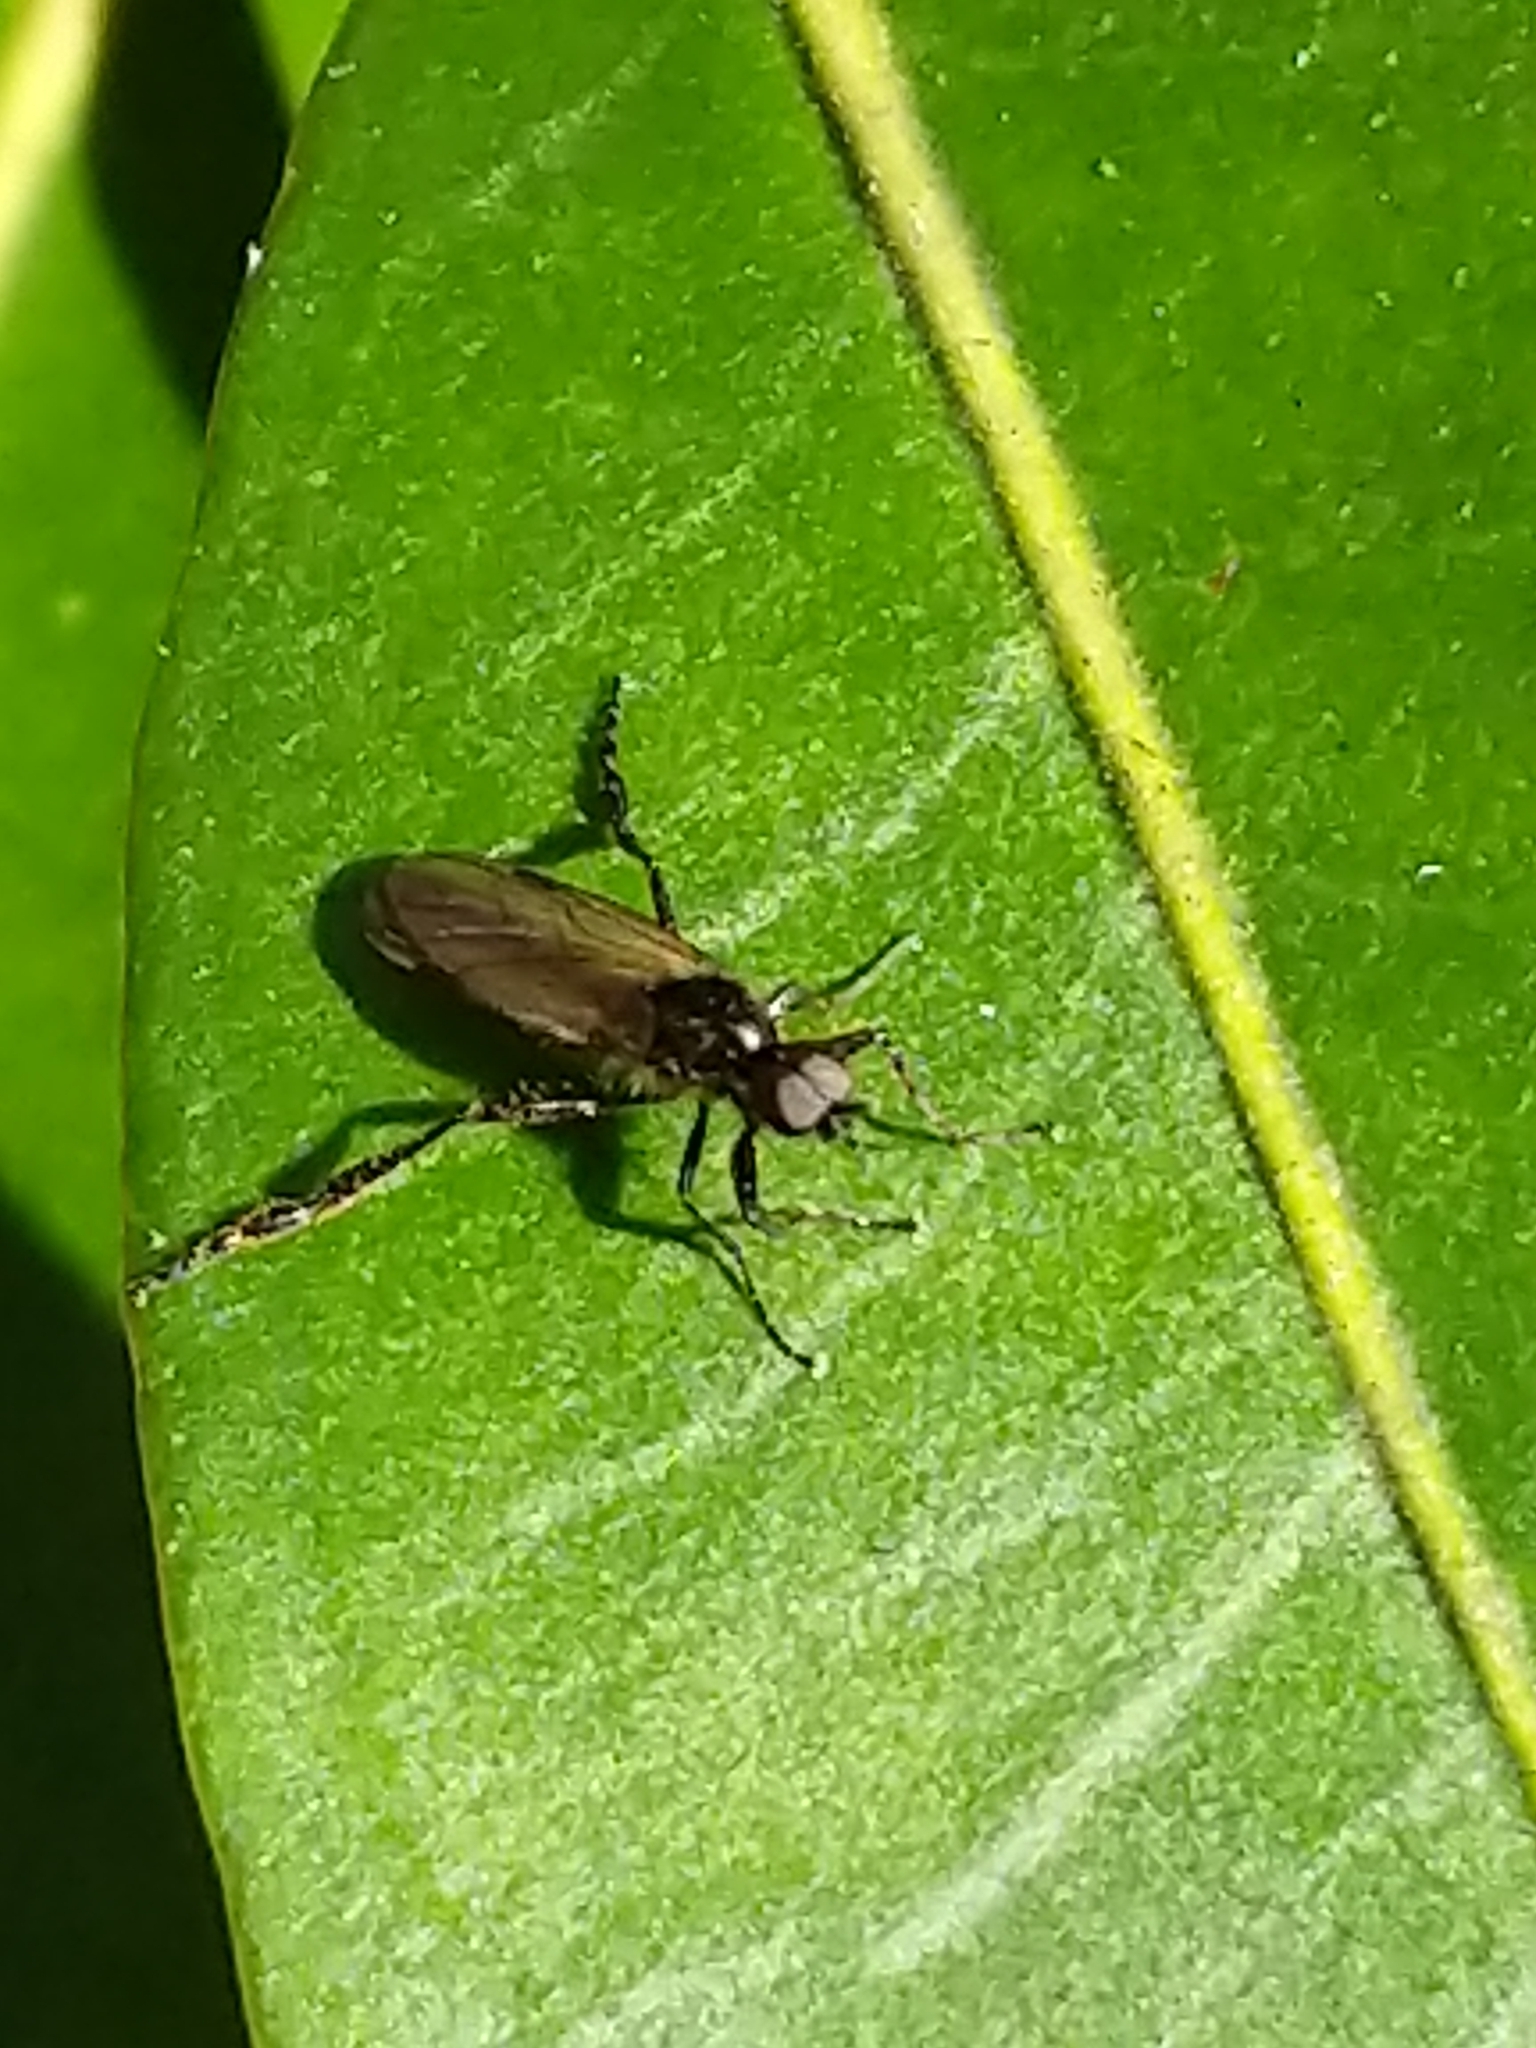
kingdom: Animalia
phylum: Arthropoda
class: Insecta
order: Diptera
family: Bibionidae
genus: Bibio
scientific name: Bibio longipes
